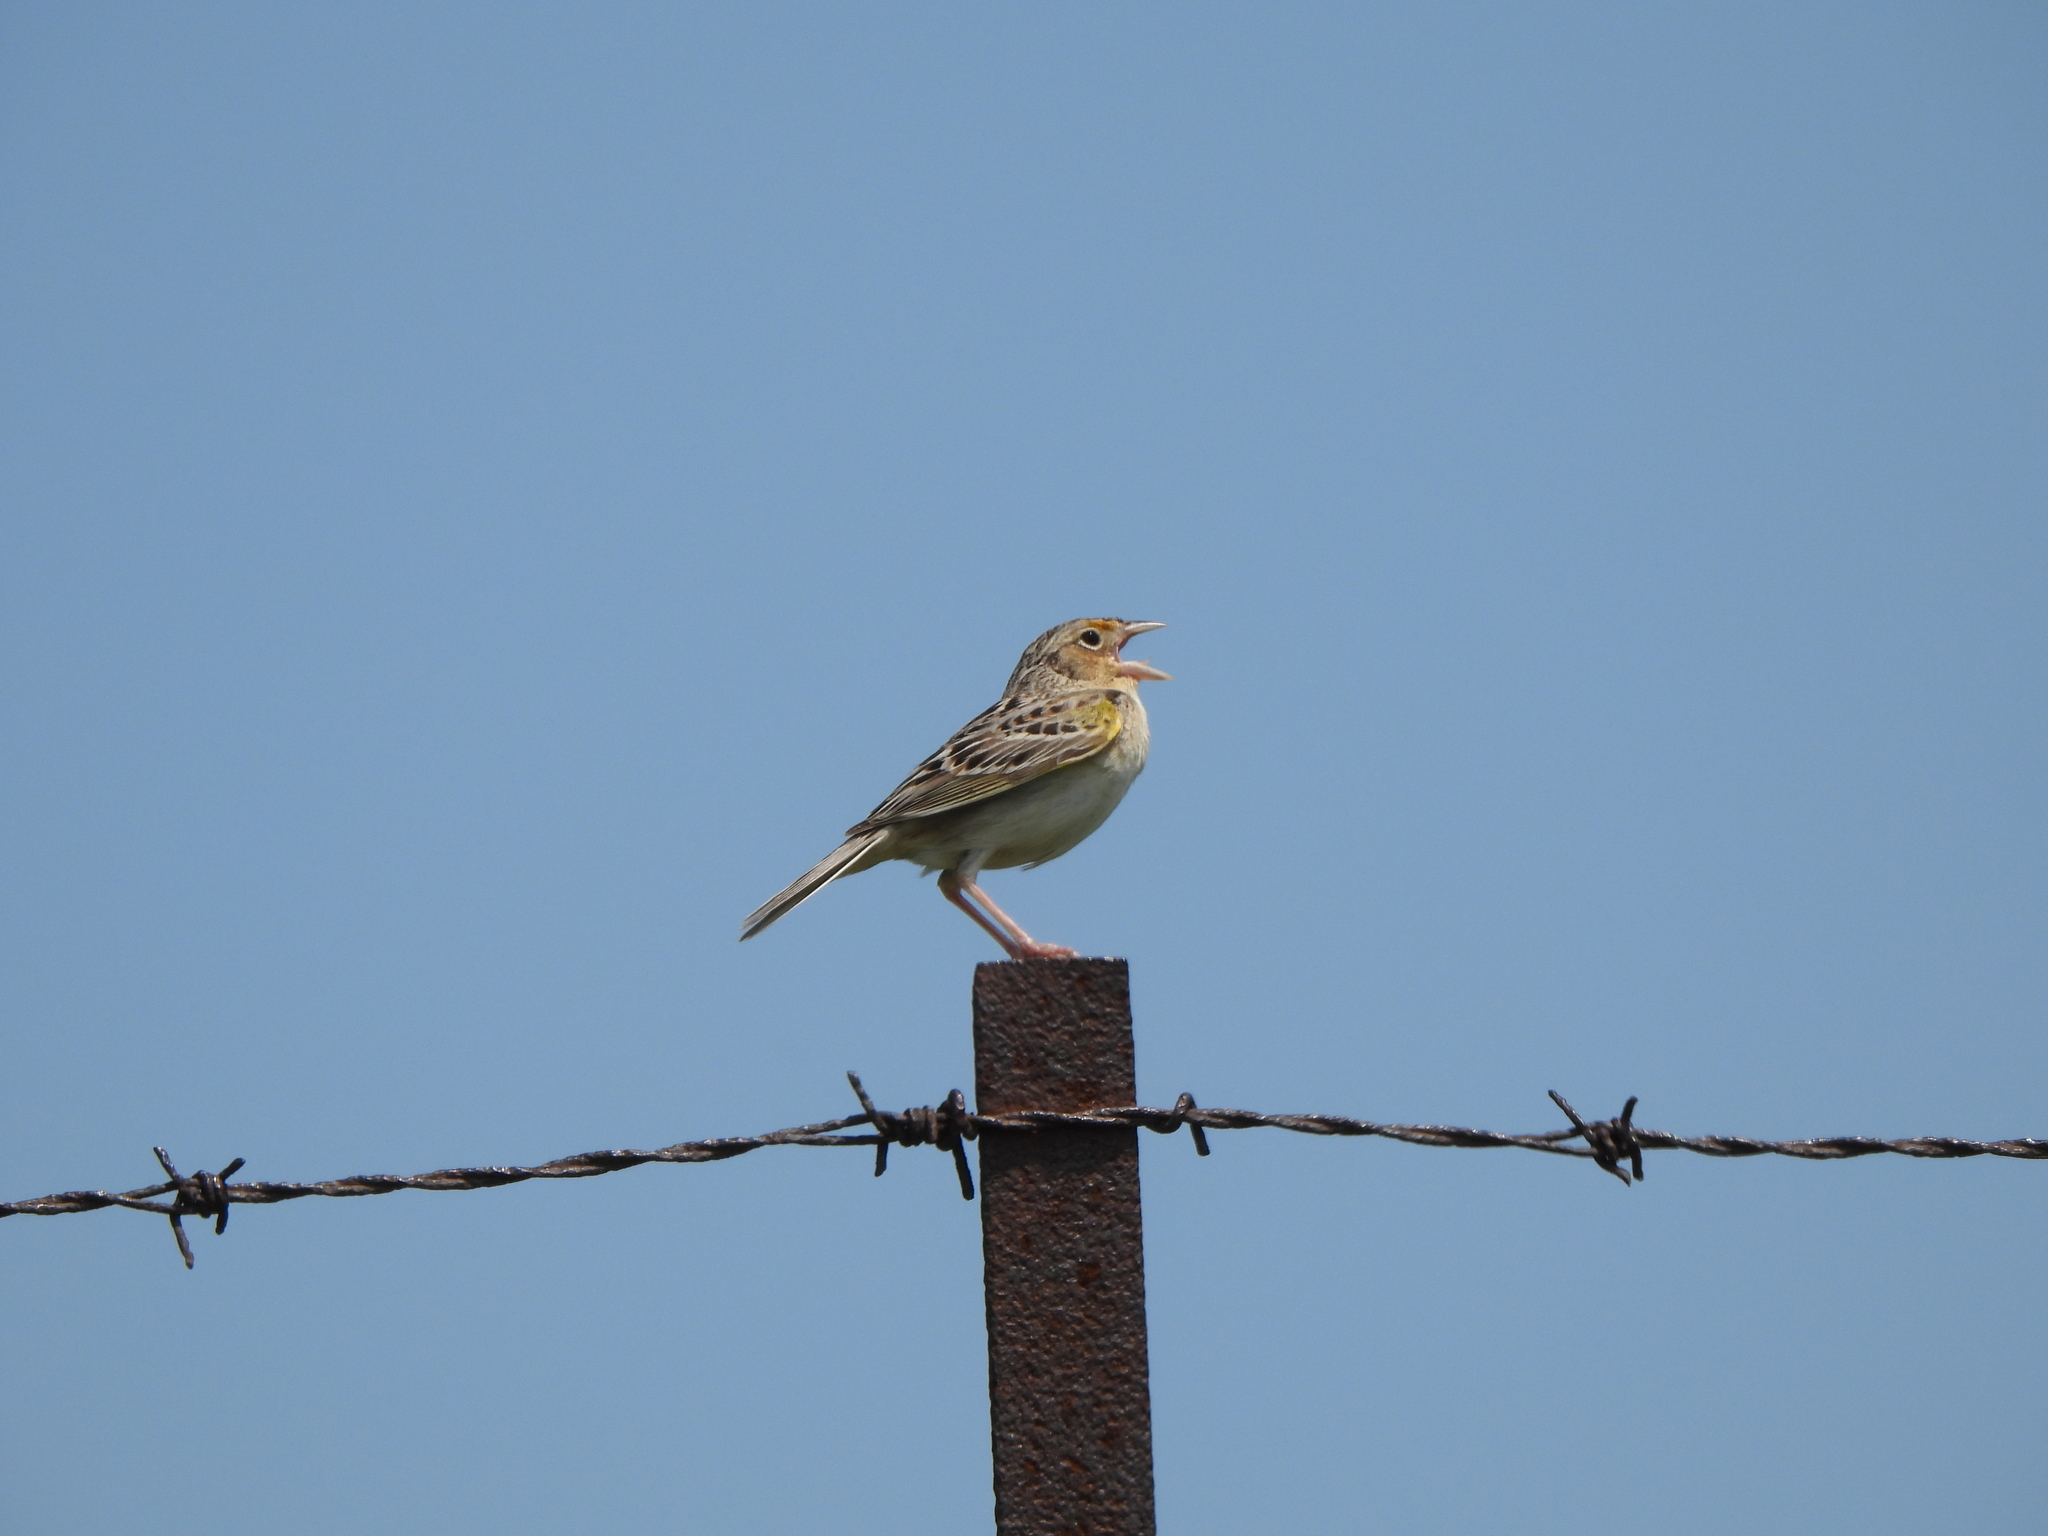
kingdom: Animalia
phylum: Chordata
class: Aves
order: Passeriformes
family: Passerellidae
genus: Ammodramus
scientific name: Ammodramus savannarum
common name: Grasshopper sparrow
